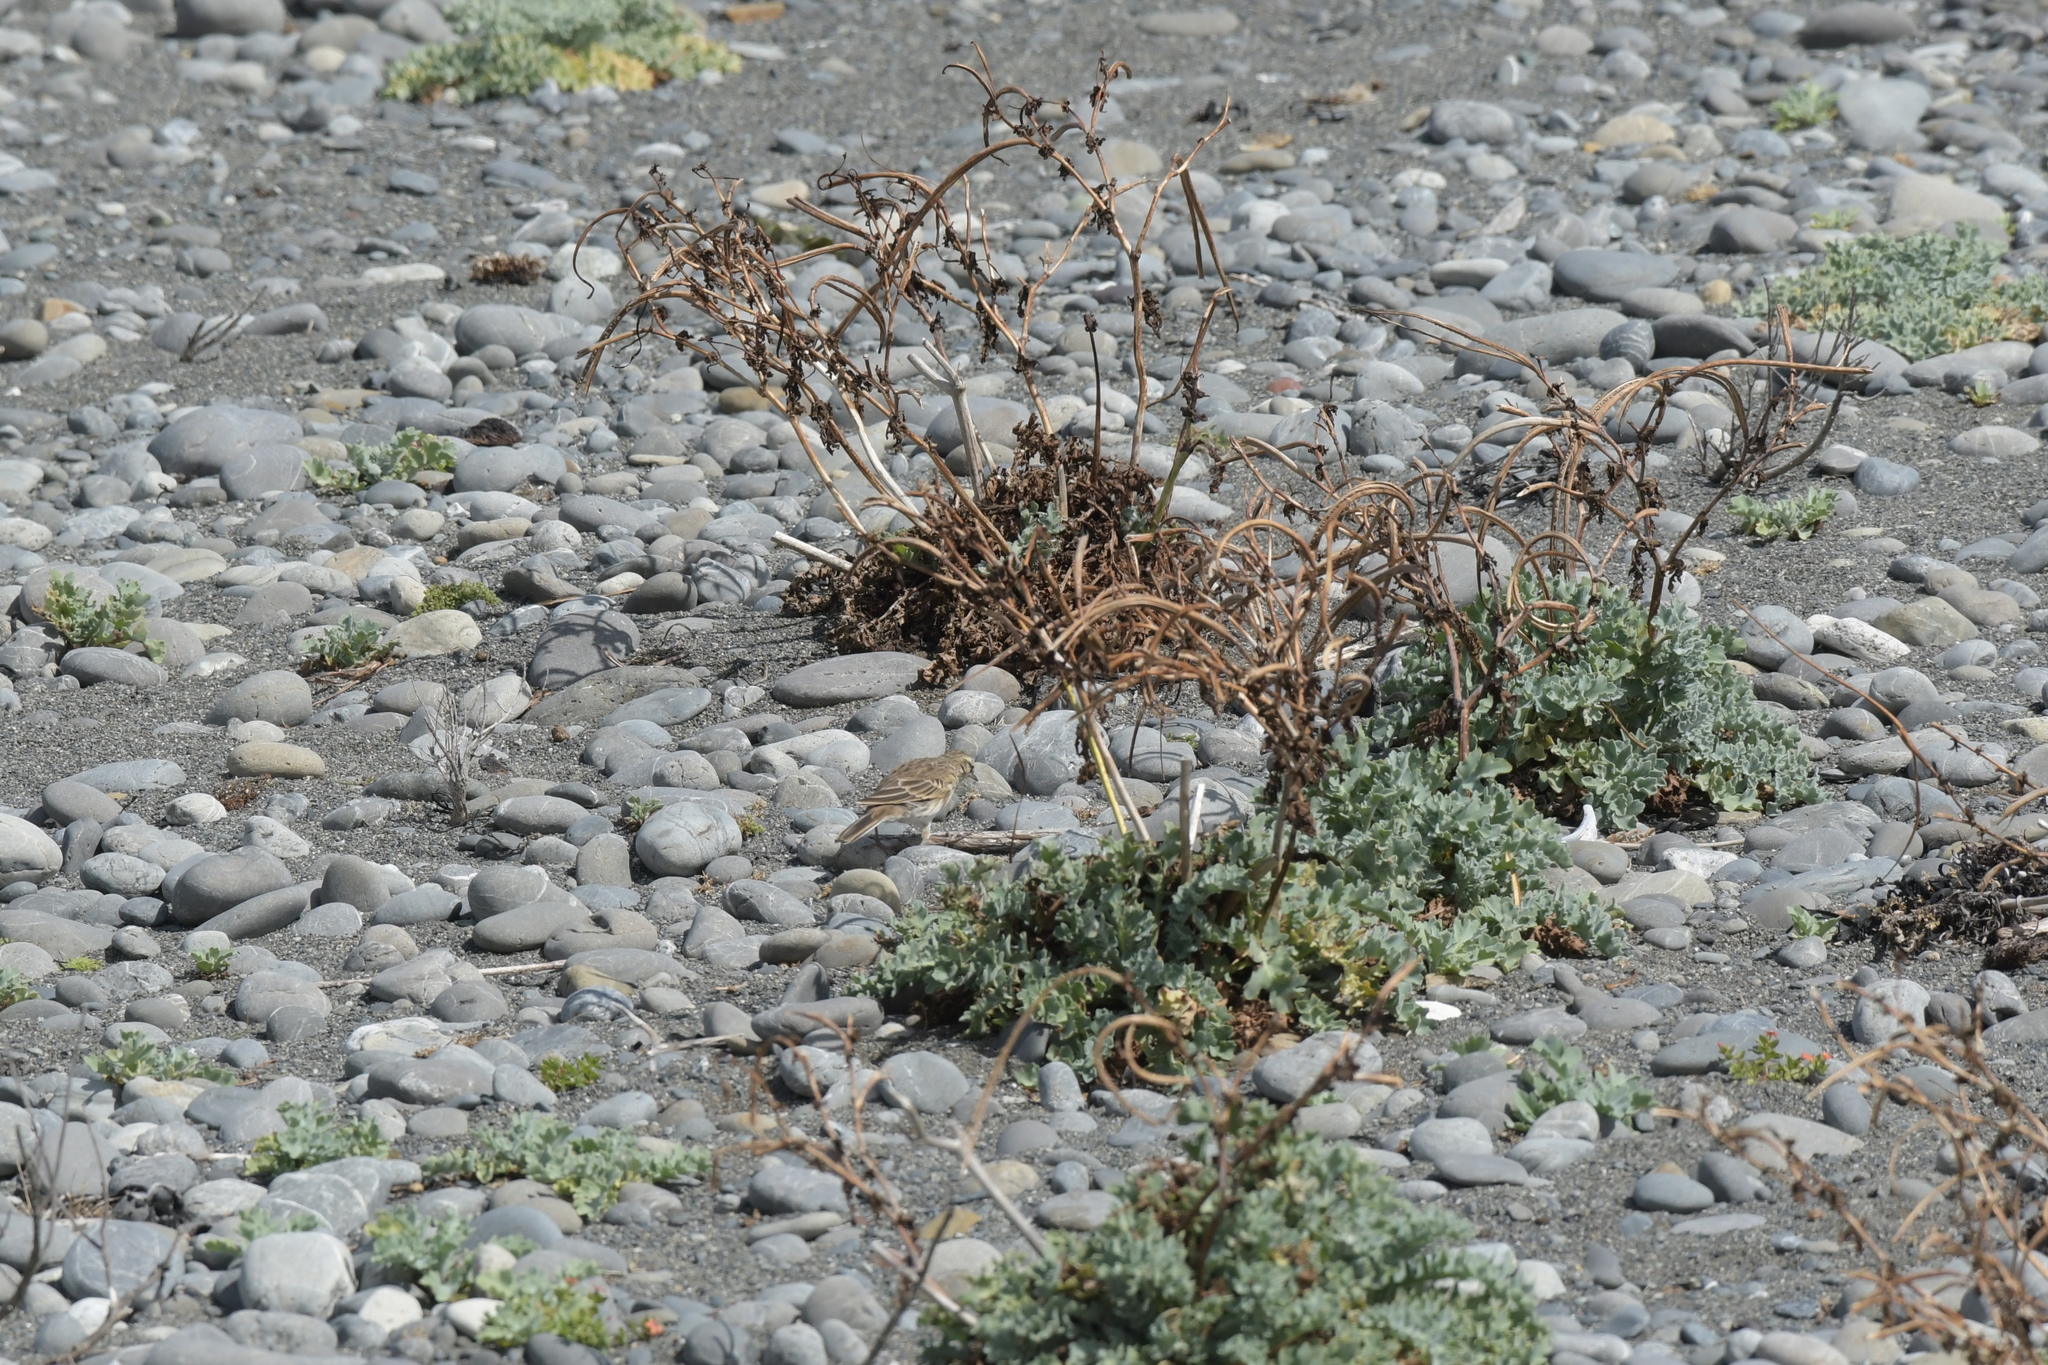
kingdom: Animalia
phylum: Chordata
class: Aves
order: Passeriformes
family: Motacillidae
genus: Anthus
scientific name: Anthus novaeseelandiae
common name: New zealand pipit
